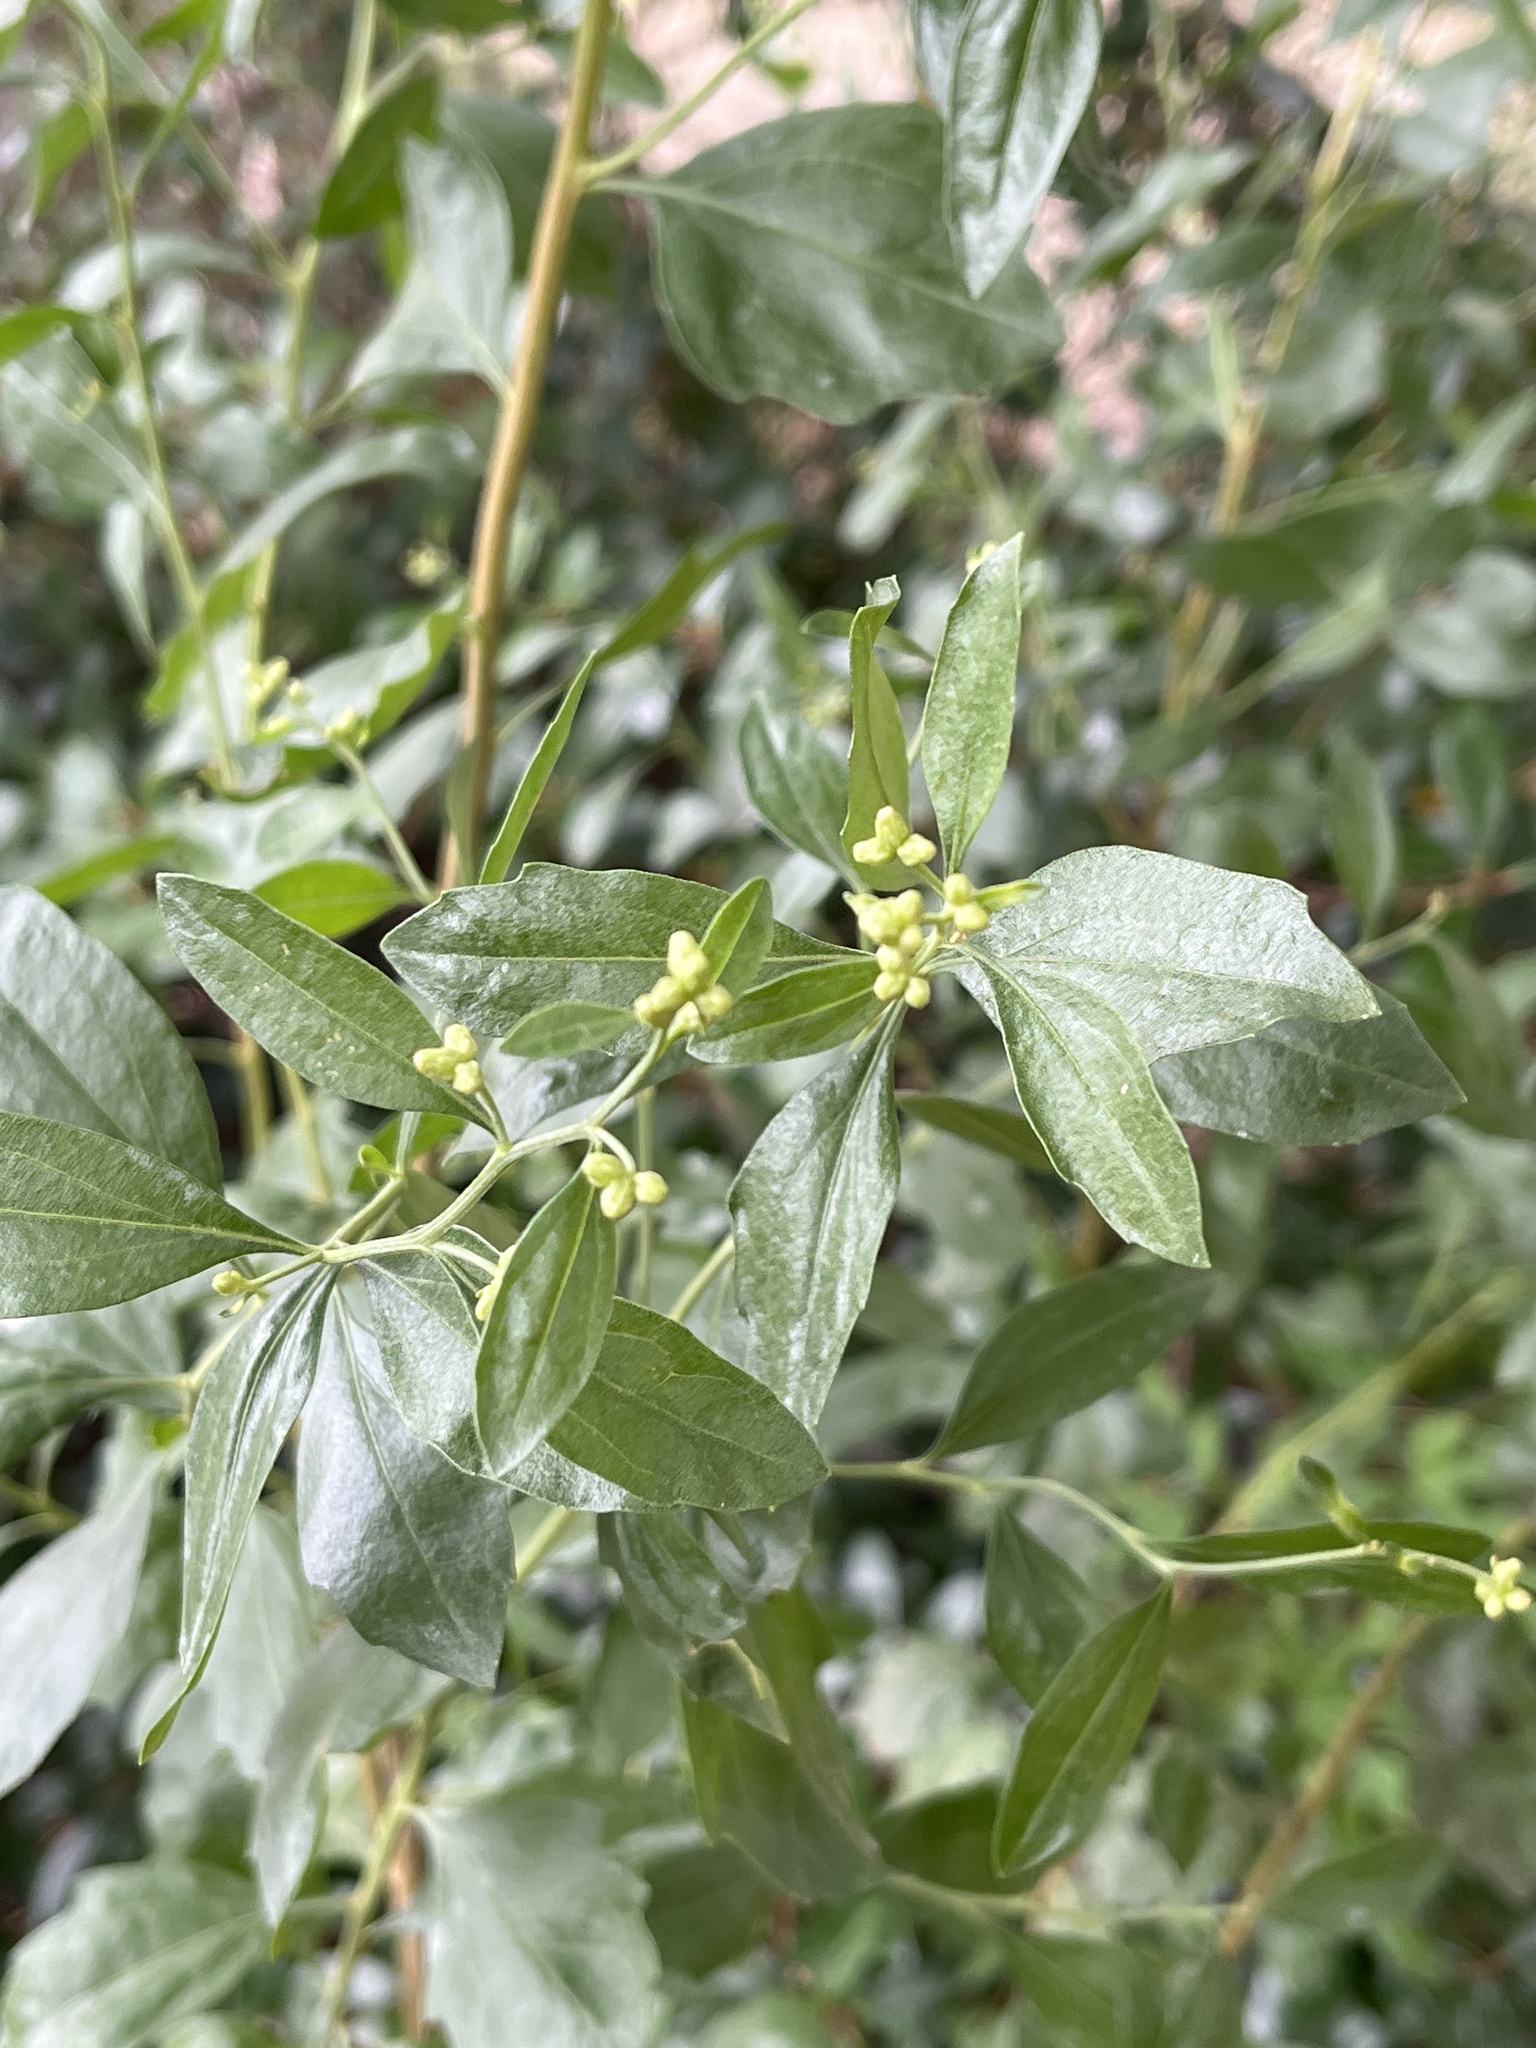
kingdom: Plantae
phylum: Tracheophyta
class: Magnoliopsida
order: Asterales
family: Asteraceae
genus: Baccharis
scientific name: Baccharis halimifolia
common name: Eastern baccharis
